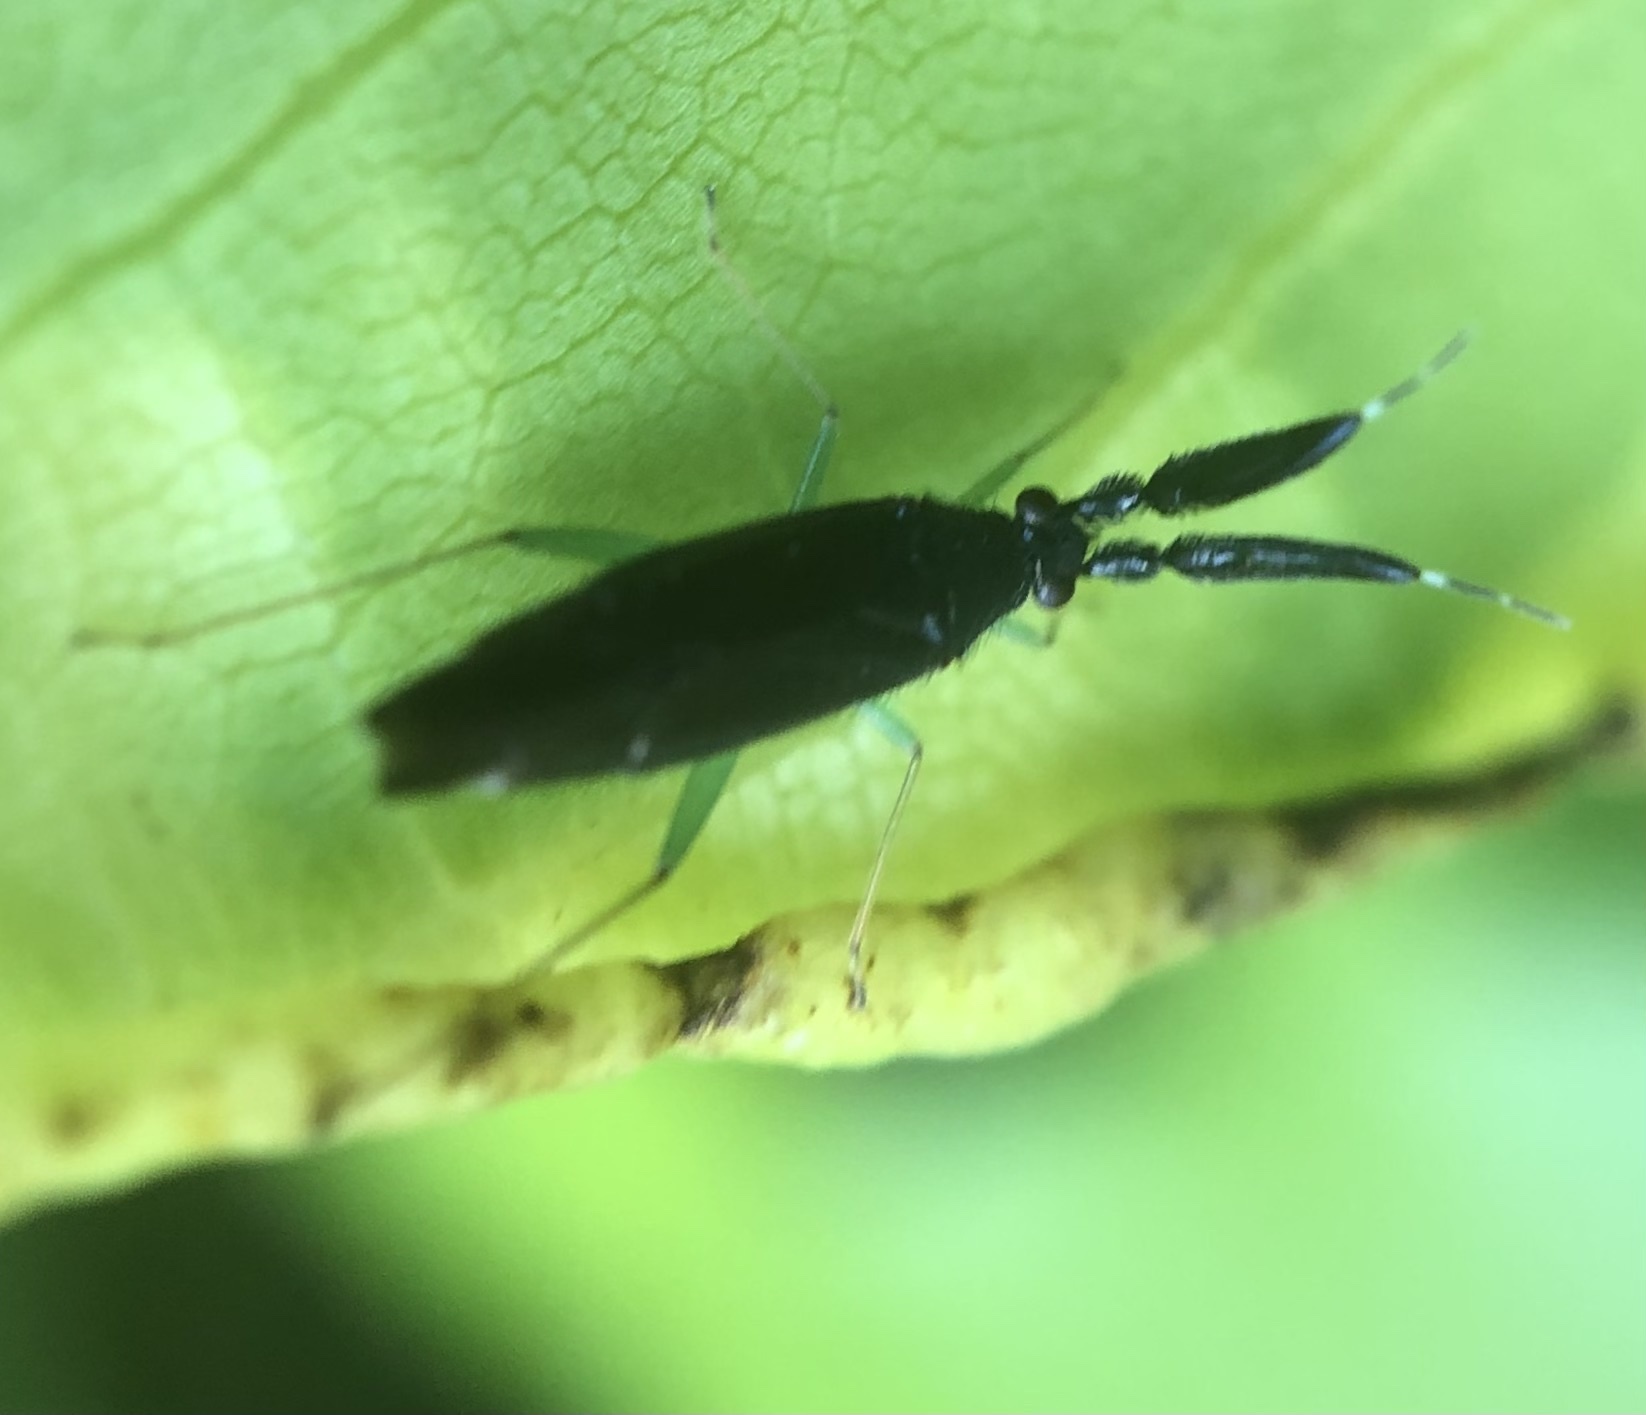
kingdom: Animalia
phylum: Arthropoda
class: Insecta
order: Hemiptera
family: Miridae
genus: Heterotoma
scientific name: Heterotoma planicornis
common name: Plant bug
